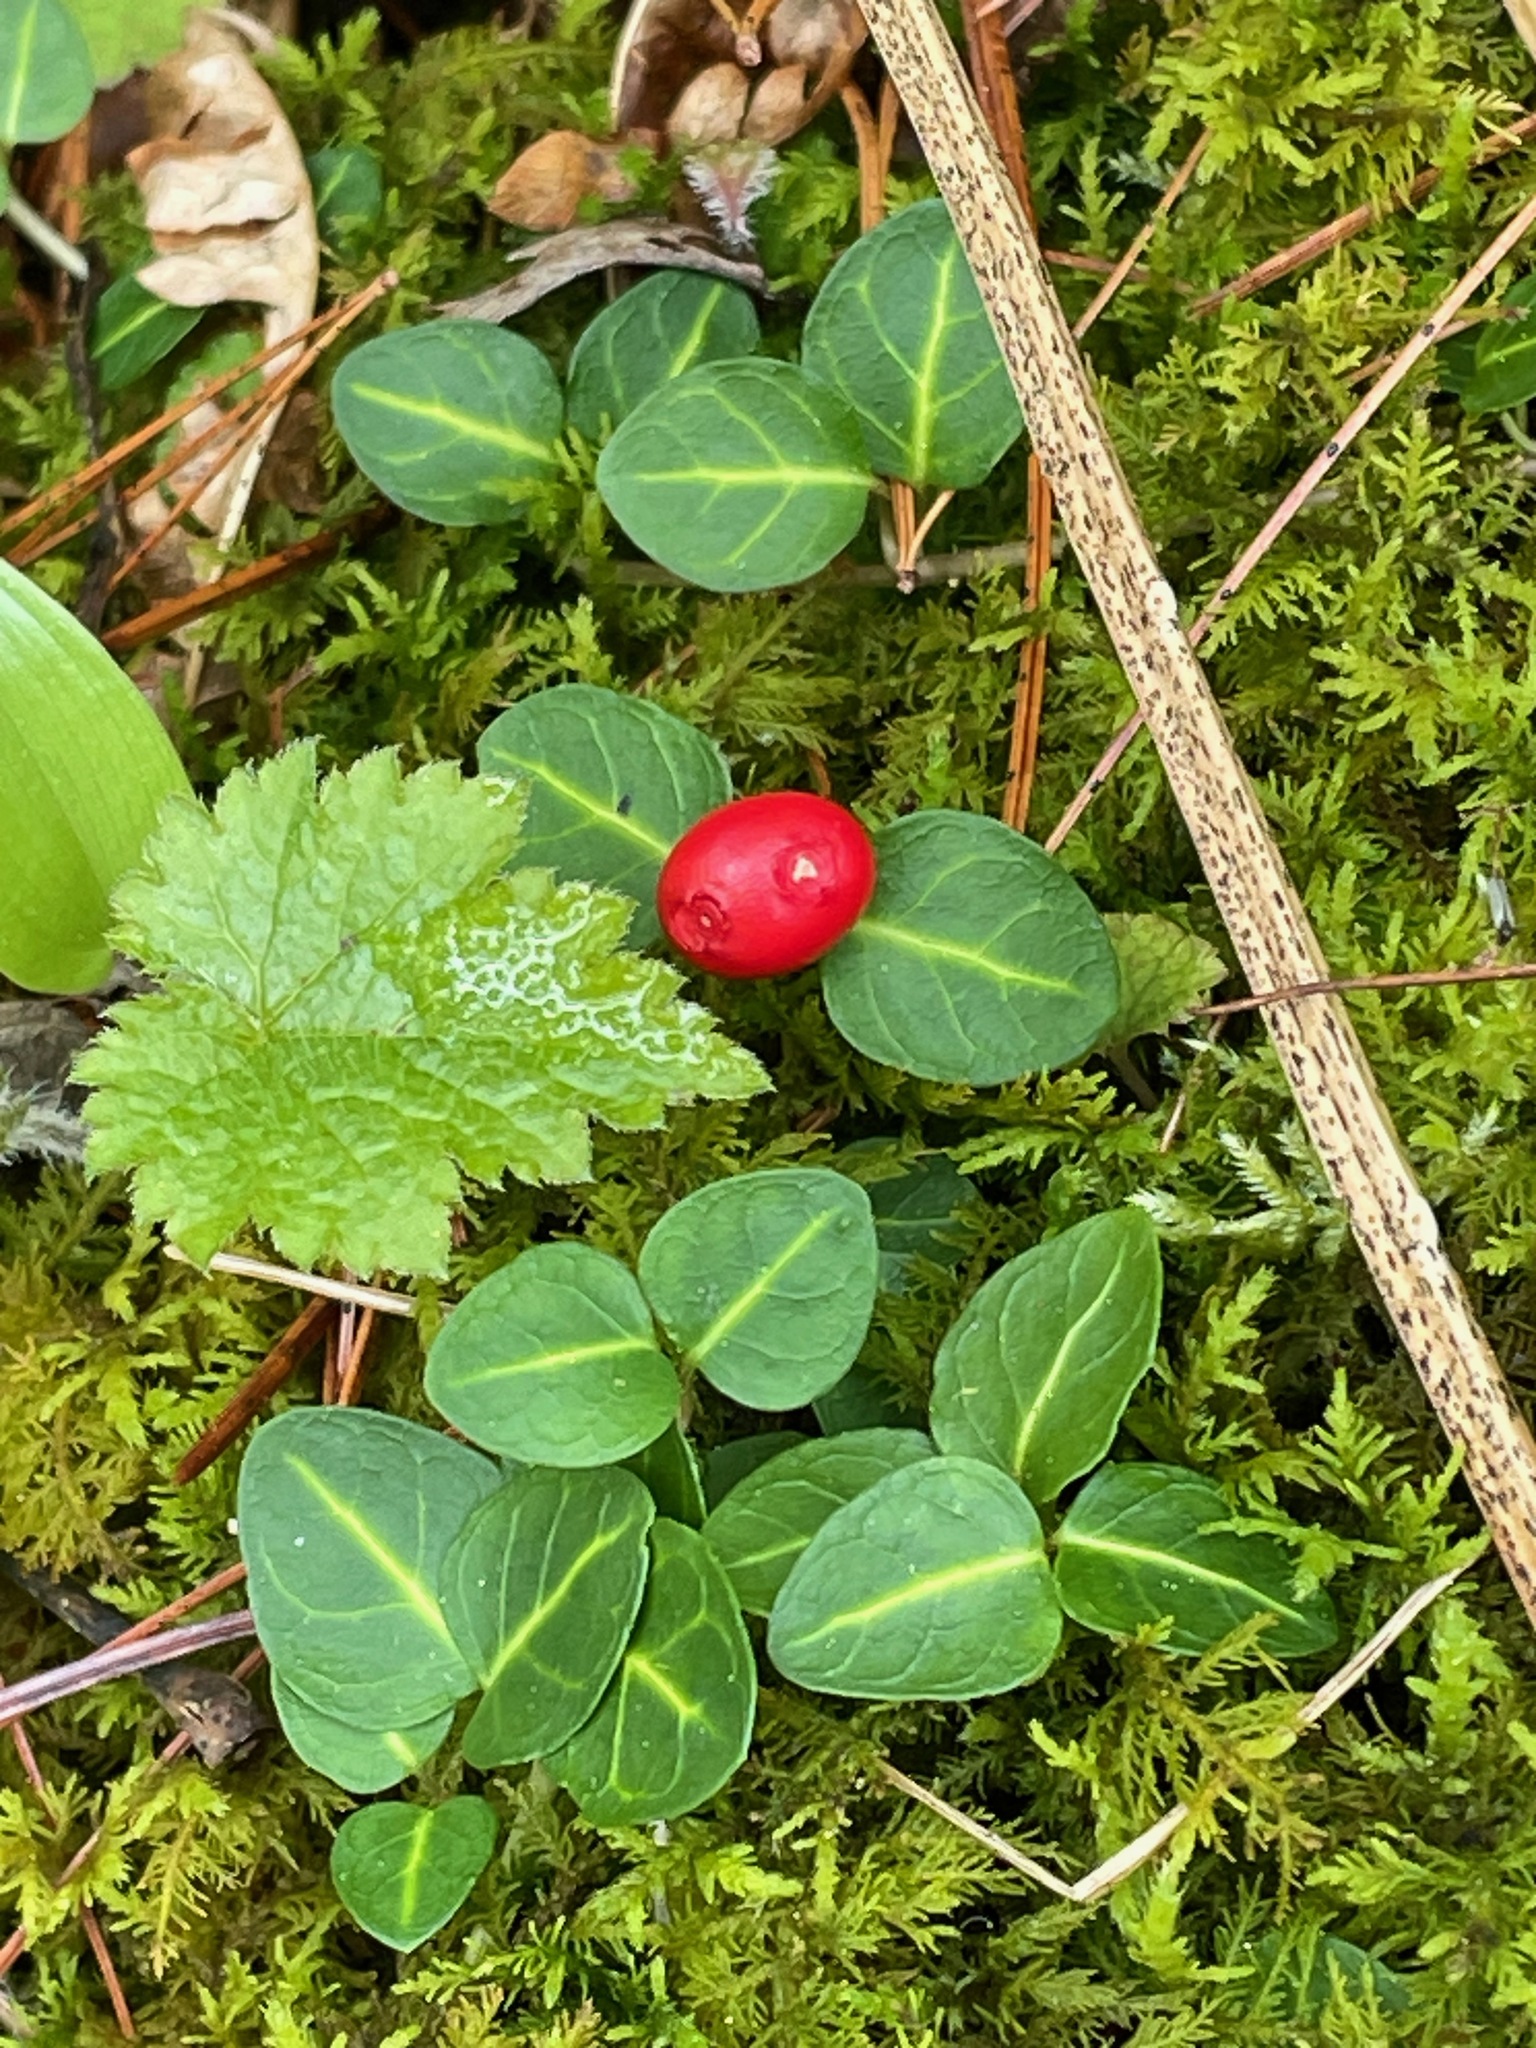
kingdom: Plantae
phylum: Tracheophyta
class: Magnoliopsida
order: Gentianales
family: Rubiaceae
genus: Mitchella
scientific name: Mitchella repens
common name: Partridge-berry
